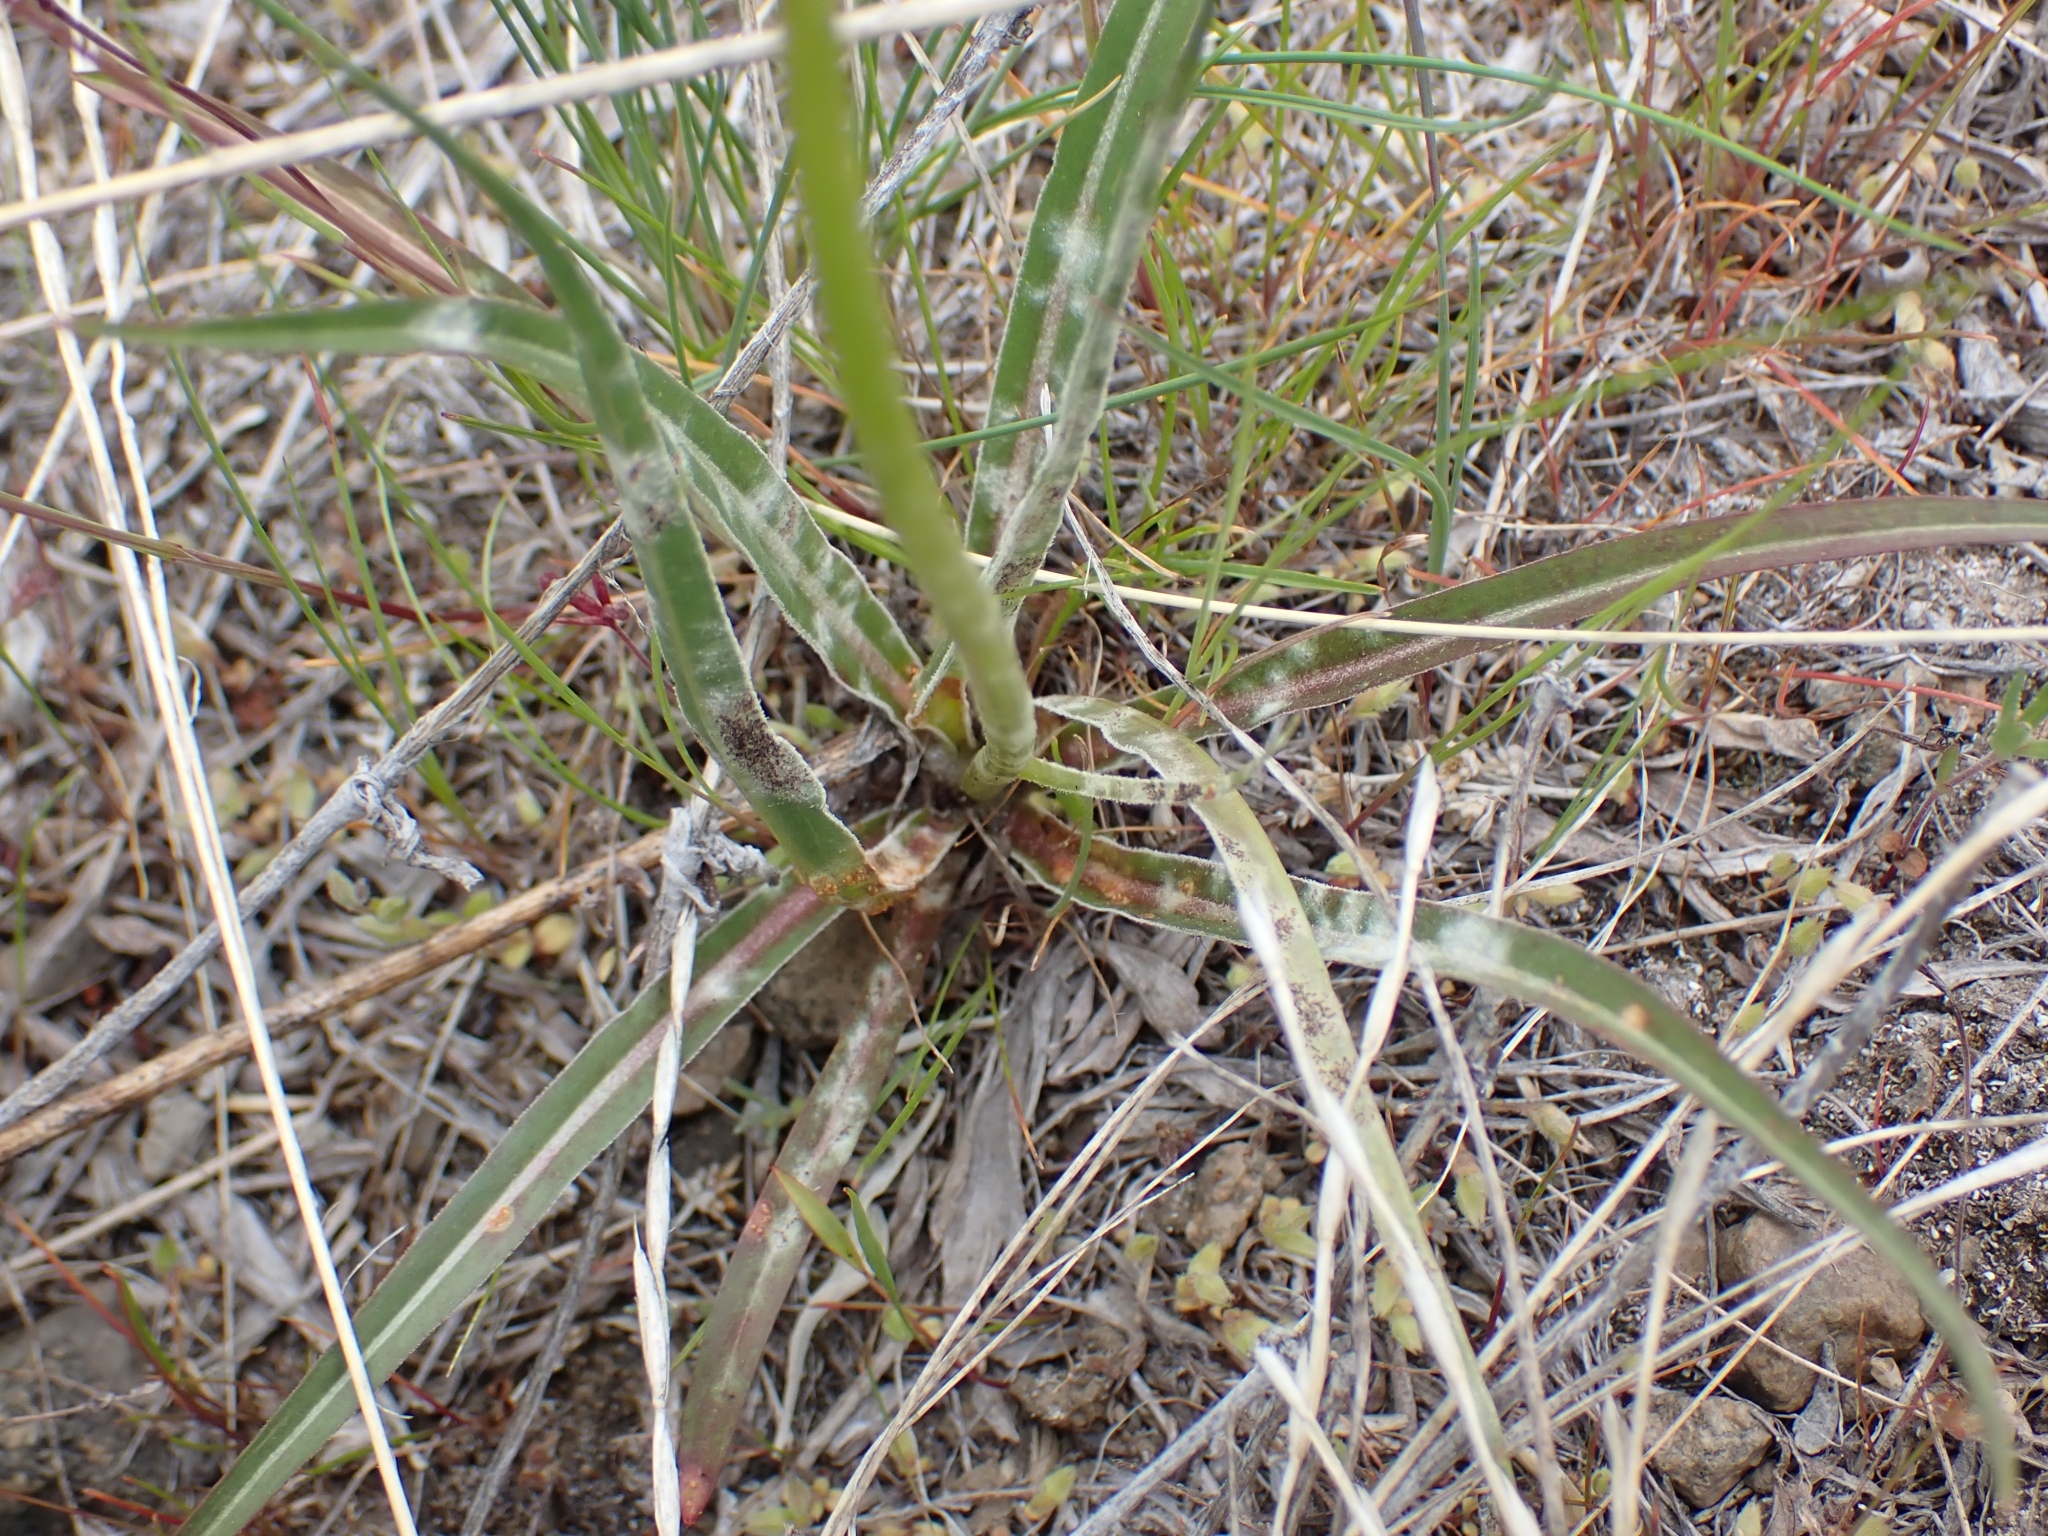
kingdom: Plantae
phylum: Tracheophyta
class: Magnoliopsida
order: Asterales
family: Asteraceae
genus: Microseris
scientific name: Microseris troximoides
